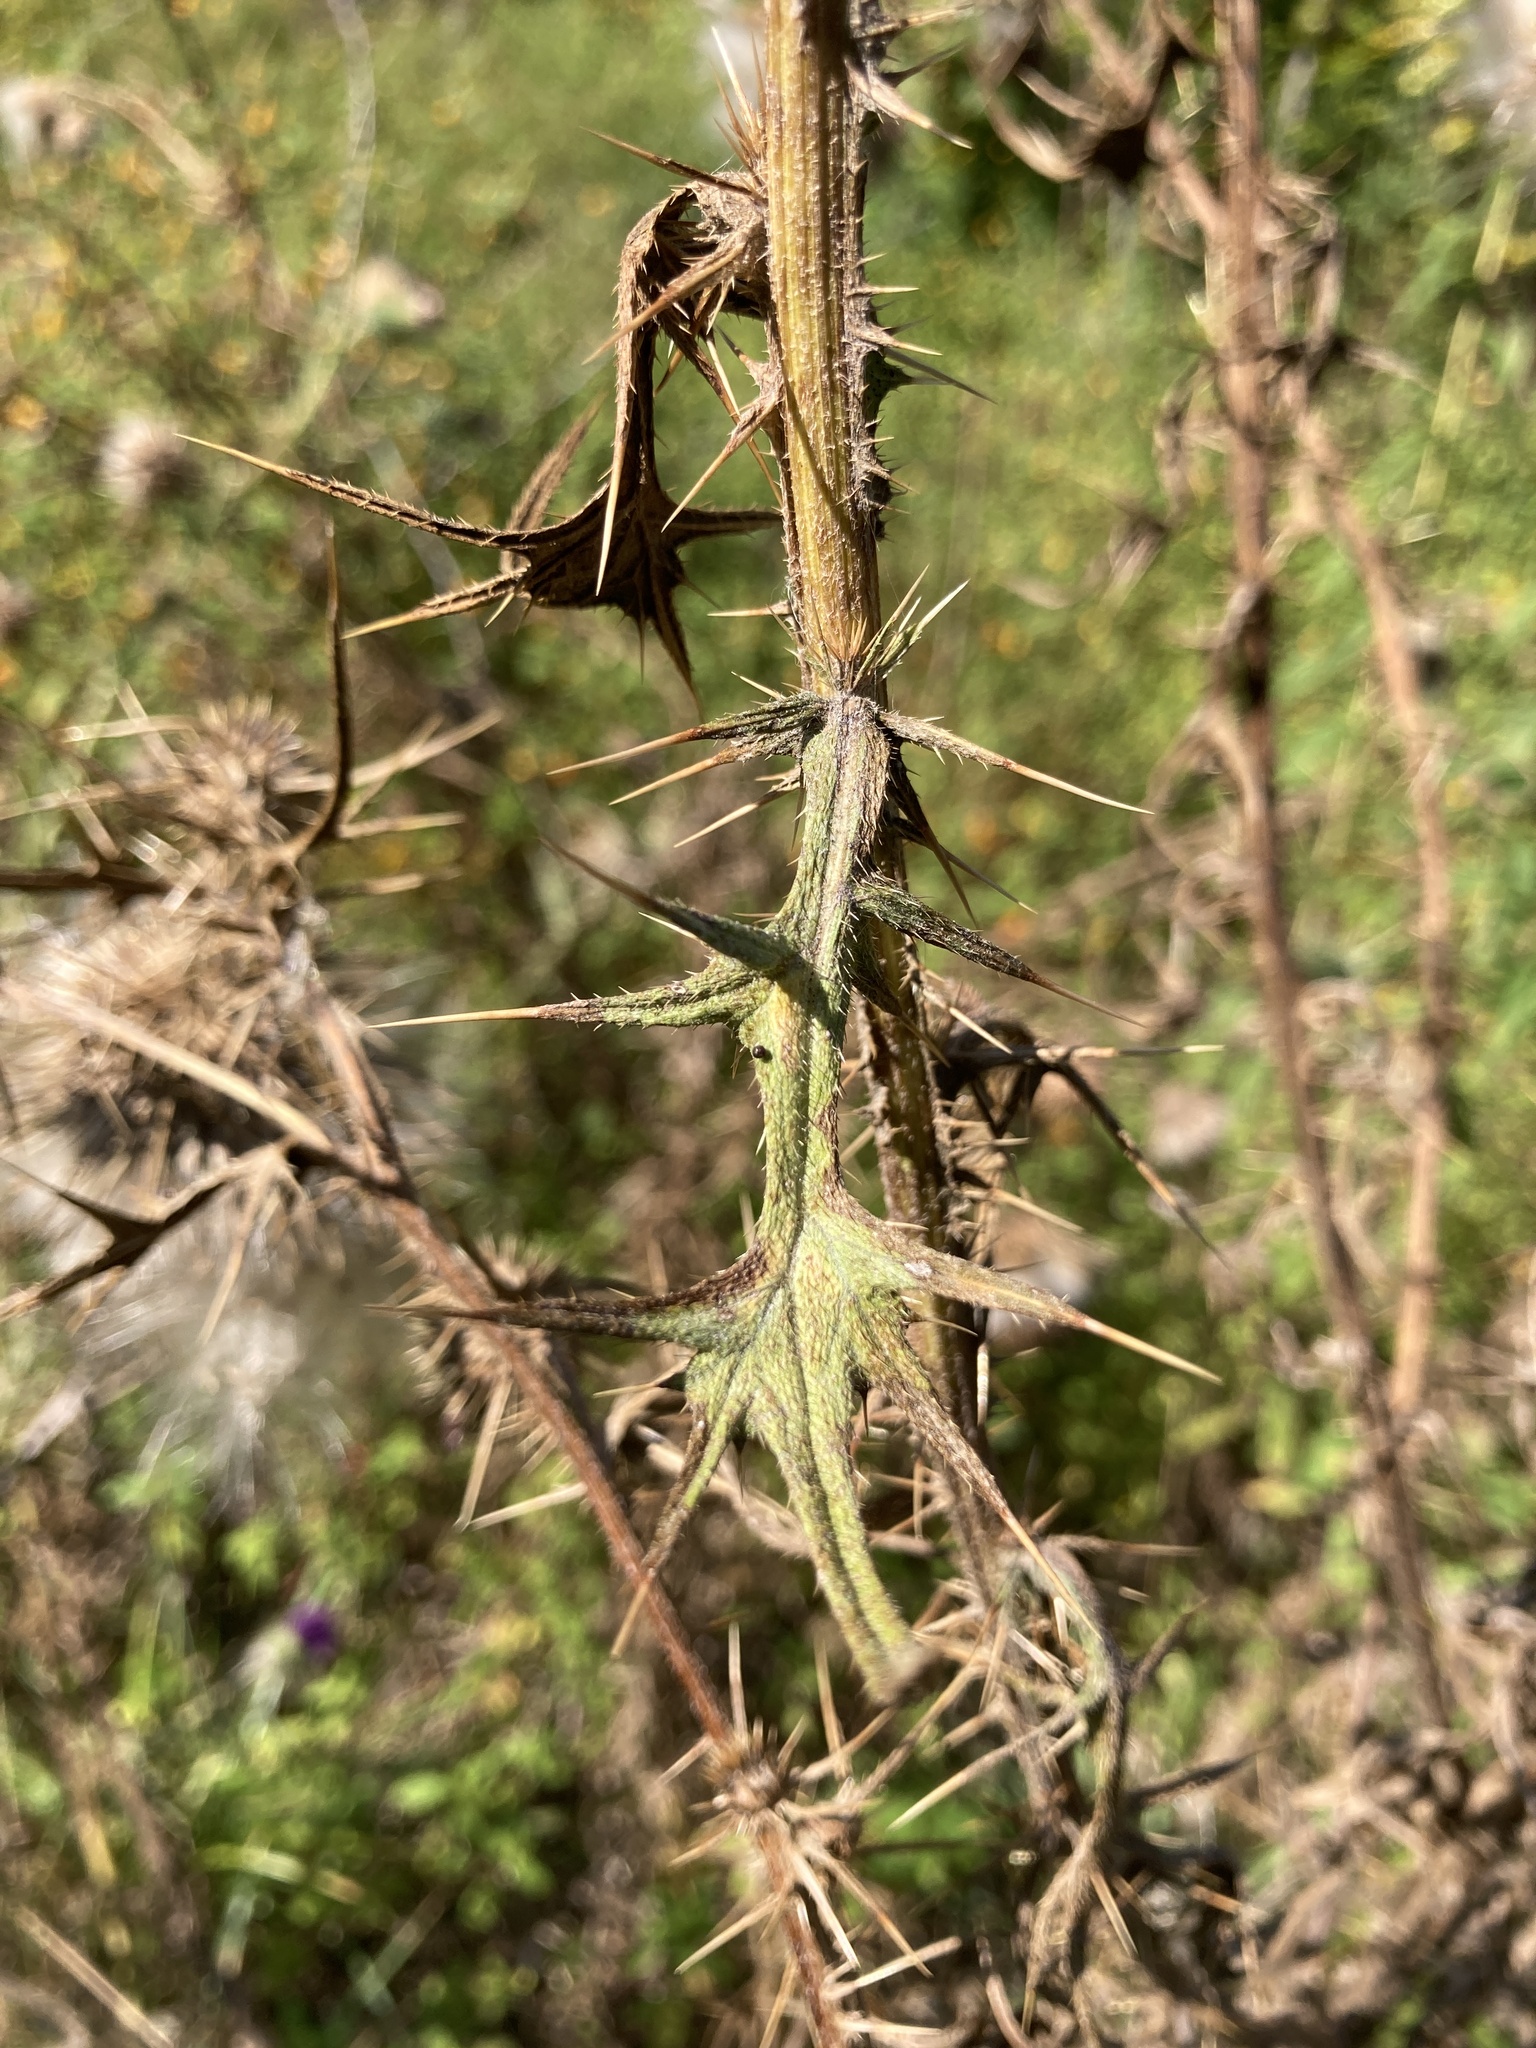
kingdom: Plantae
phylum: Tracheophyta
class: Magnoliopsida
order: Asterales
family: Asteraceae
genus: Cirsium
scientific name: Cirsium vulgare
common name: Bull thistle
